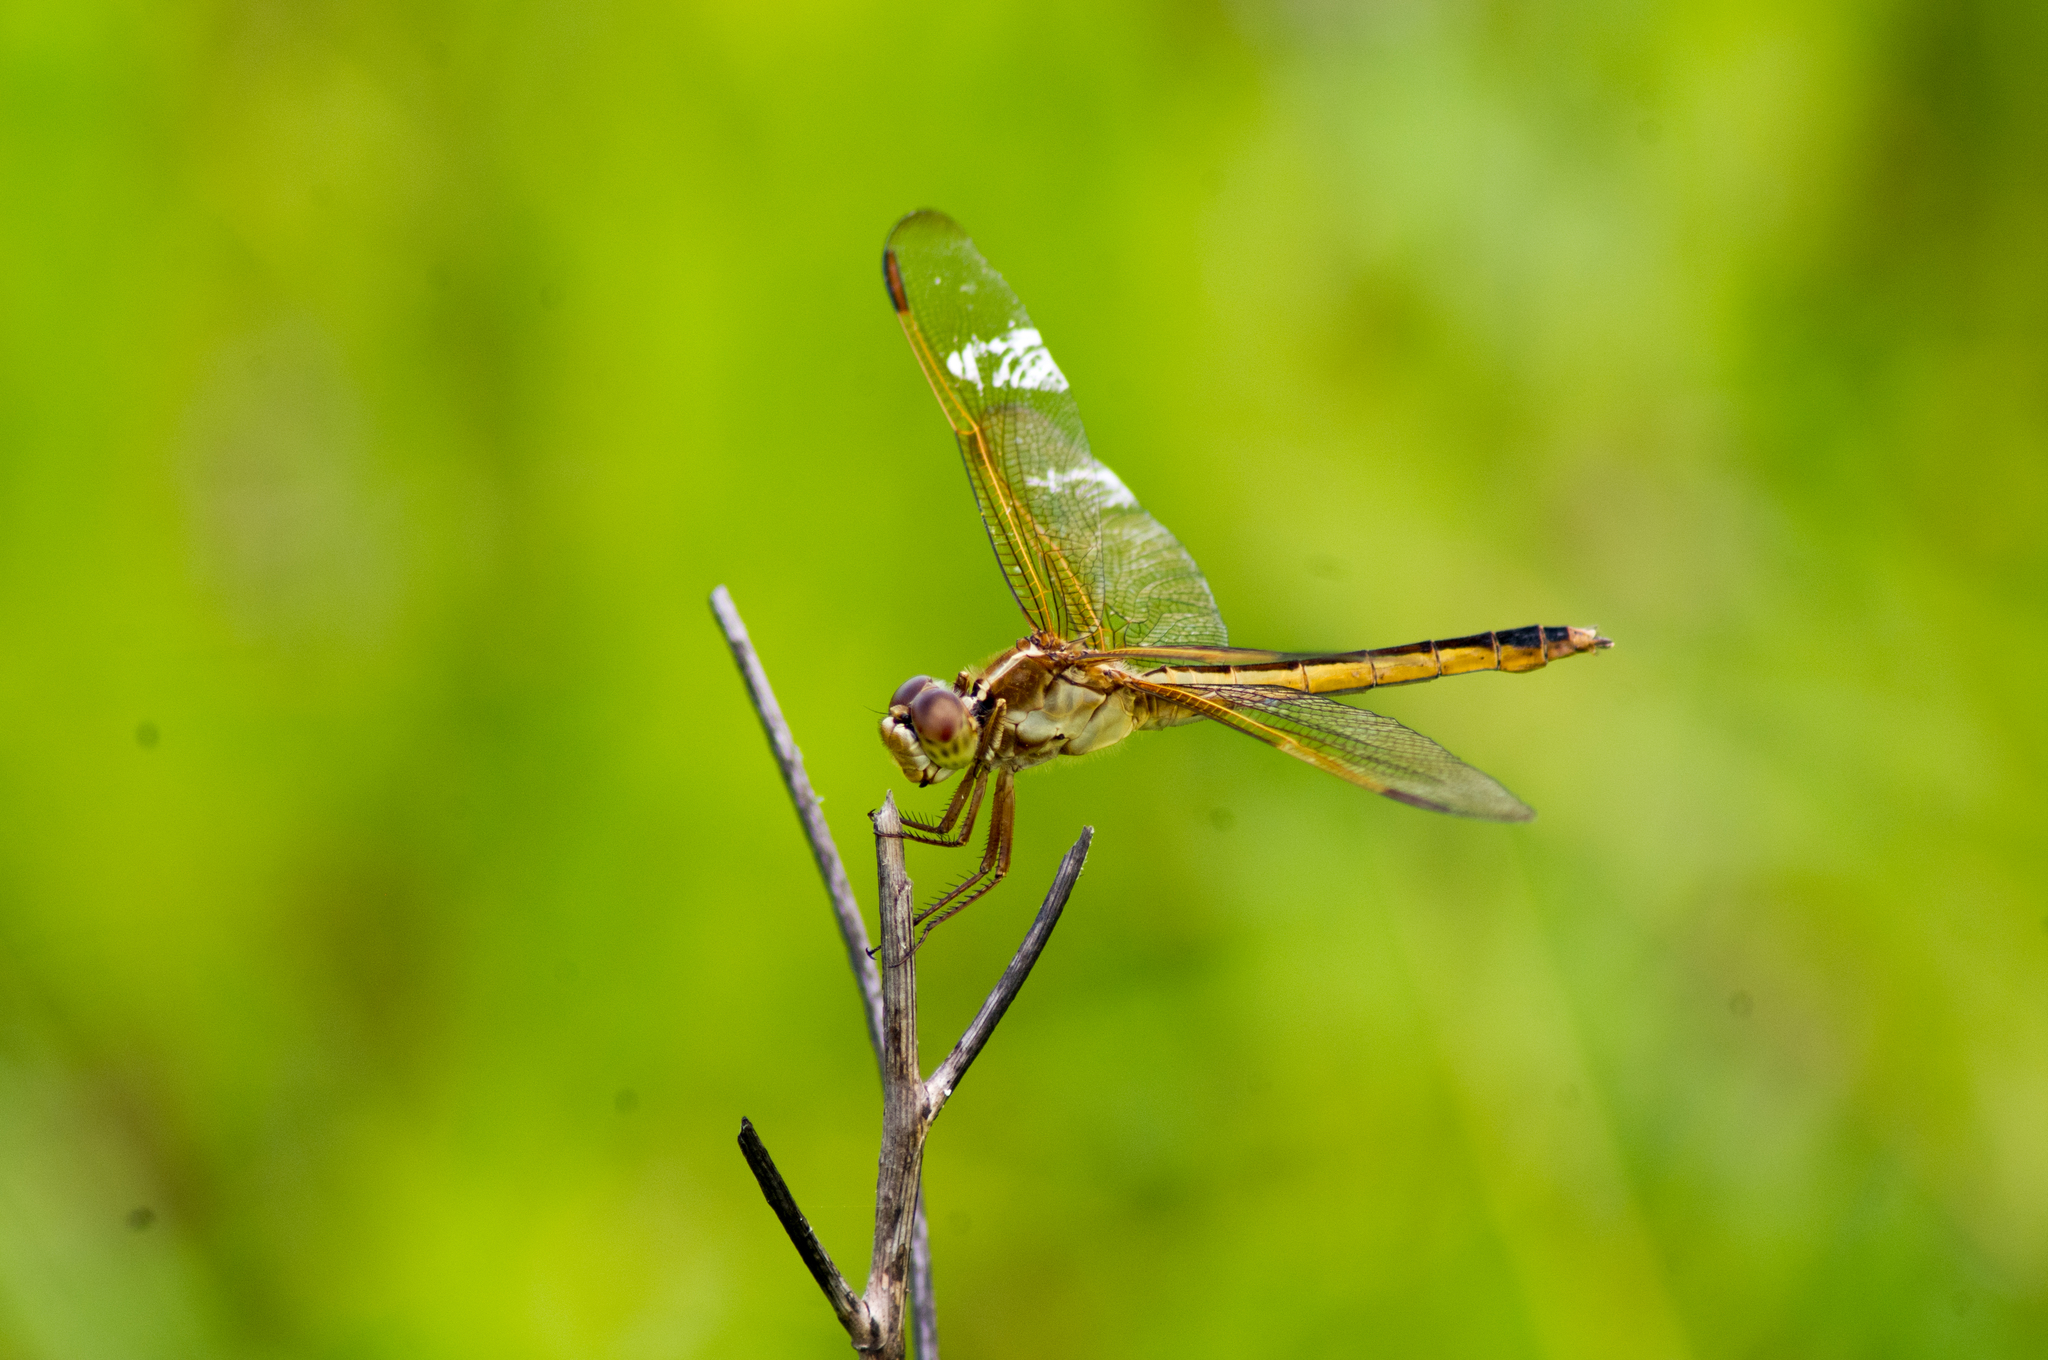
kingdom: Animalia
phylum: Arthropoda
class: Insecta
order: Odonata
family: Libellulidae
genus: Libellula
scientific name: Libellula needhami
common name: Needham's skimmer
